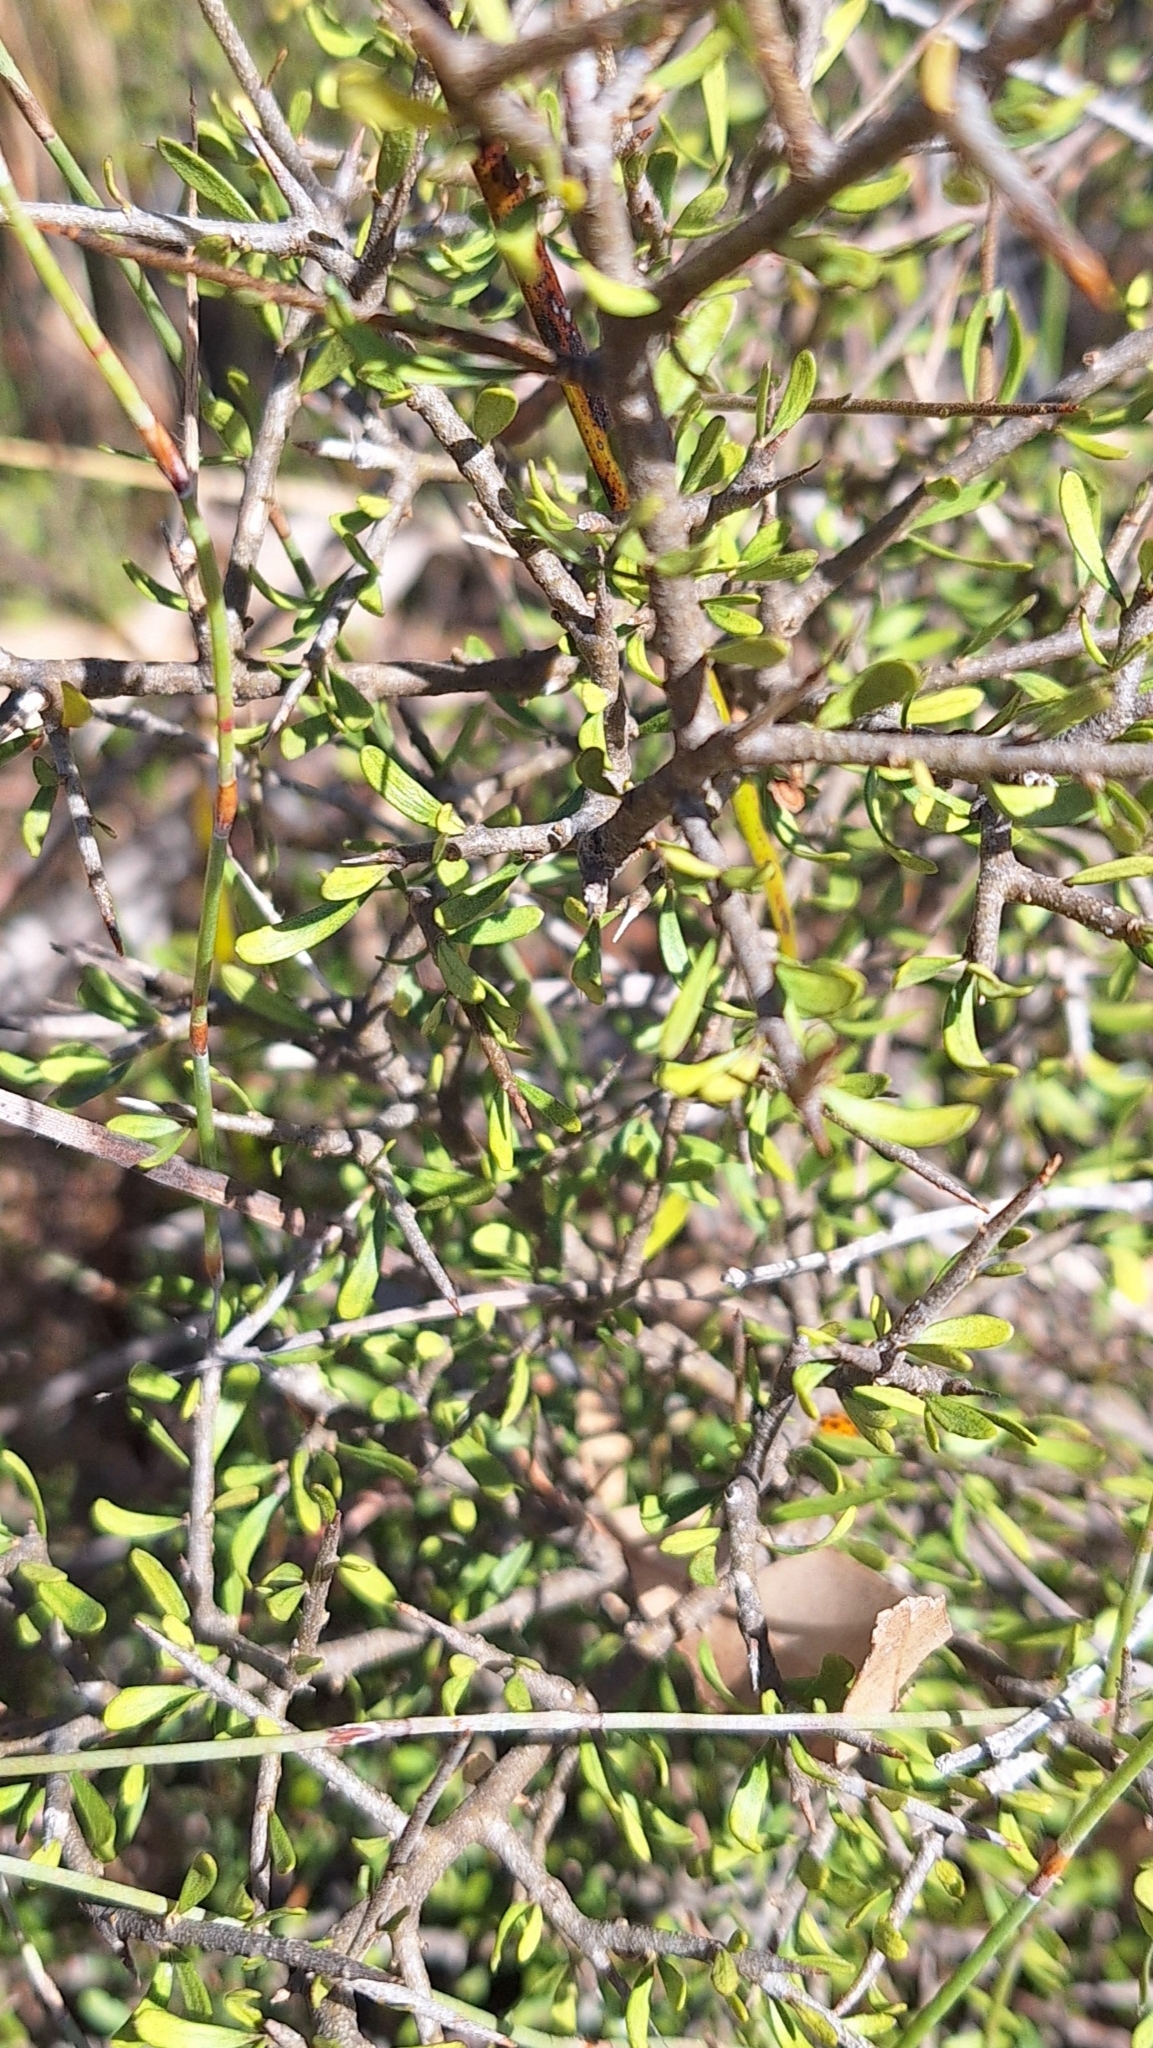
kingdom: Plantae
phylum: Tracheophyta
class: Magnoliopsida
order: Malpighiales
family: Violaceae
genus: Melicytus
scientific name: Melicytus dentatus
